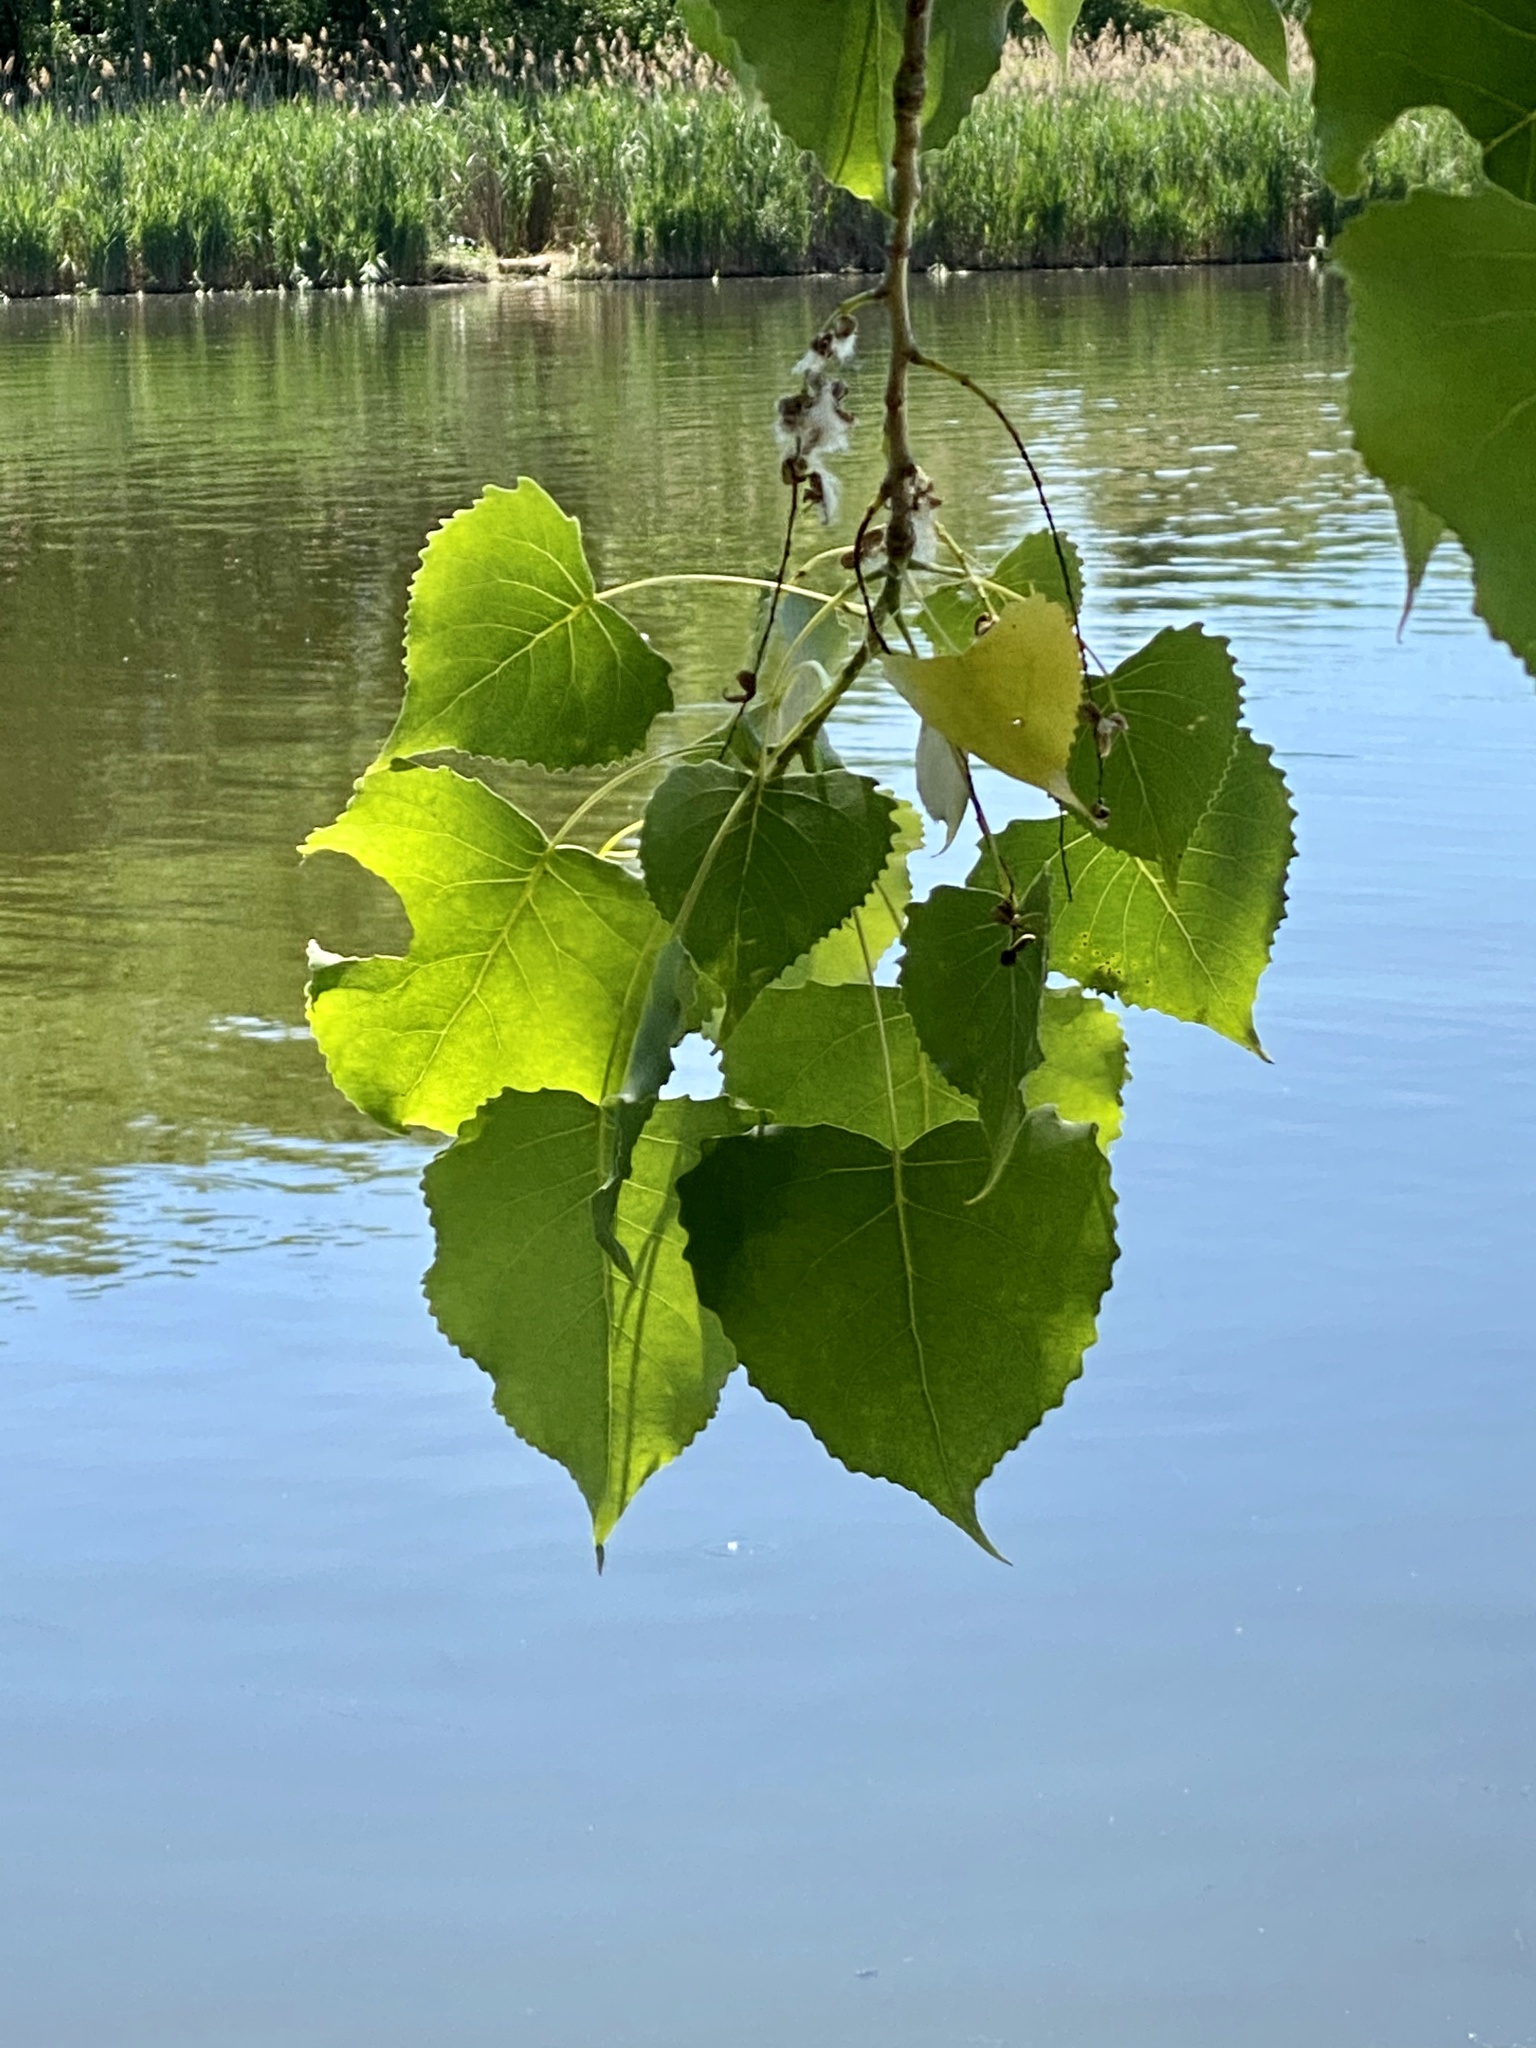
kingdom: Plantae
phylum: Tracheophyta
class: Magnoliopsida
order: Malpighiales
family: Salicaceae
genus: Populus
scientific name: Populus deltoides
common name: Eastern cottonwood
